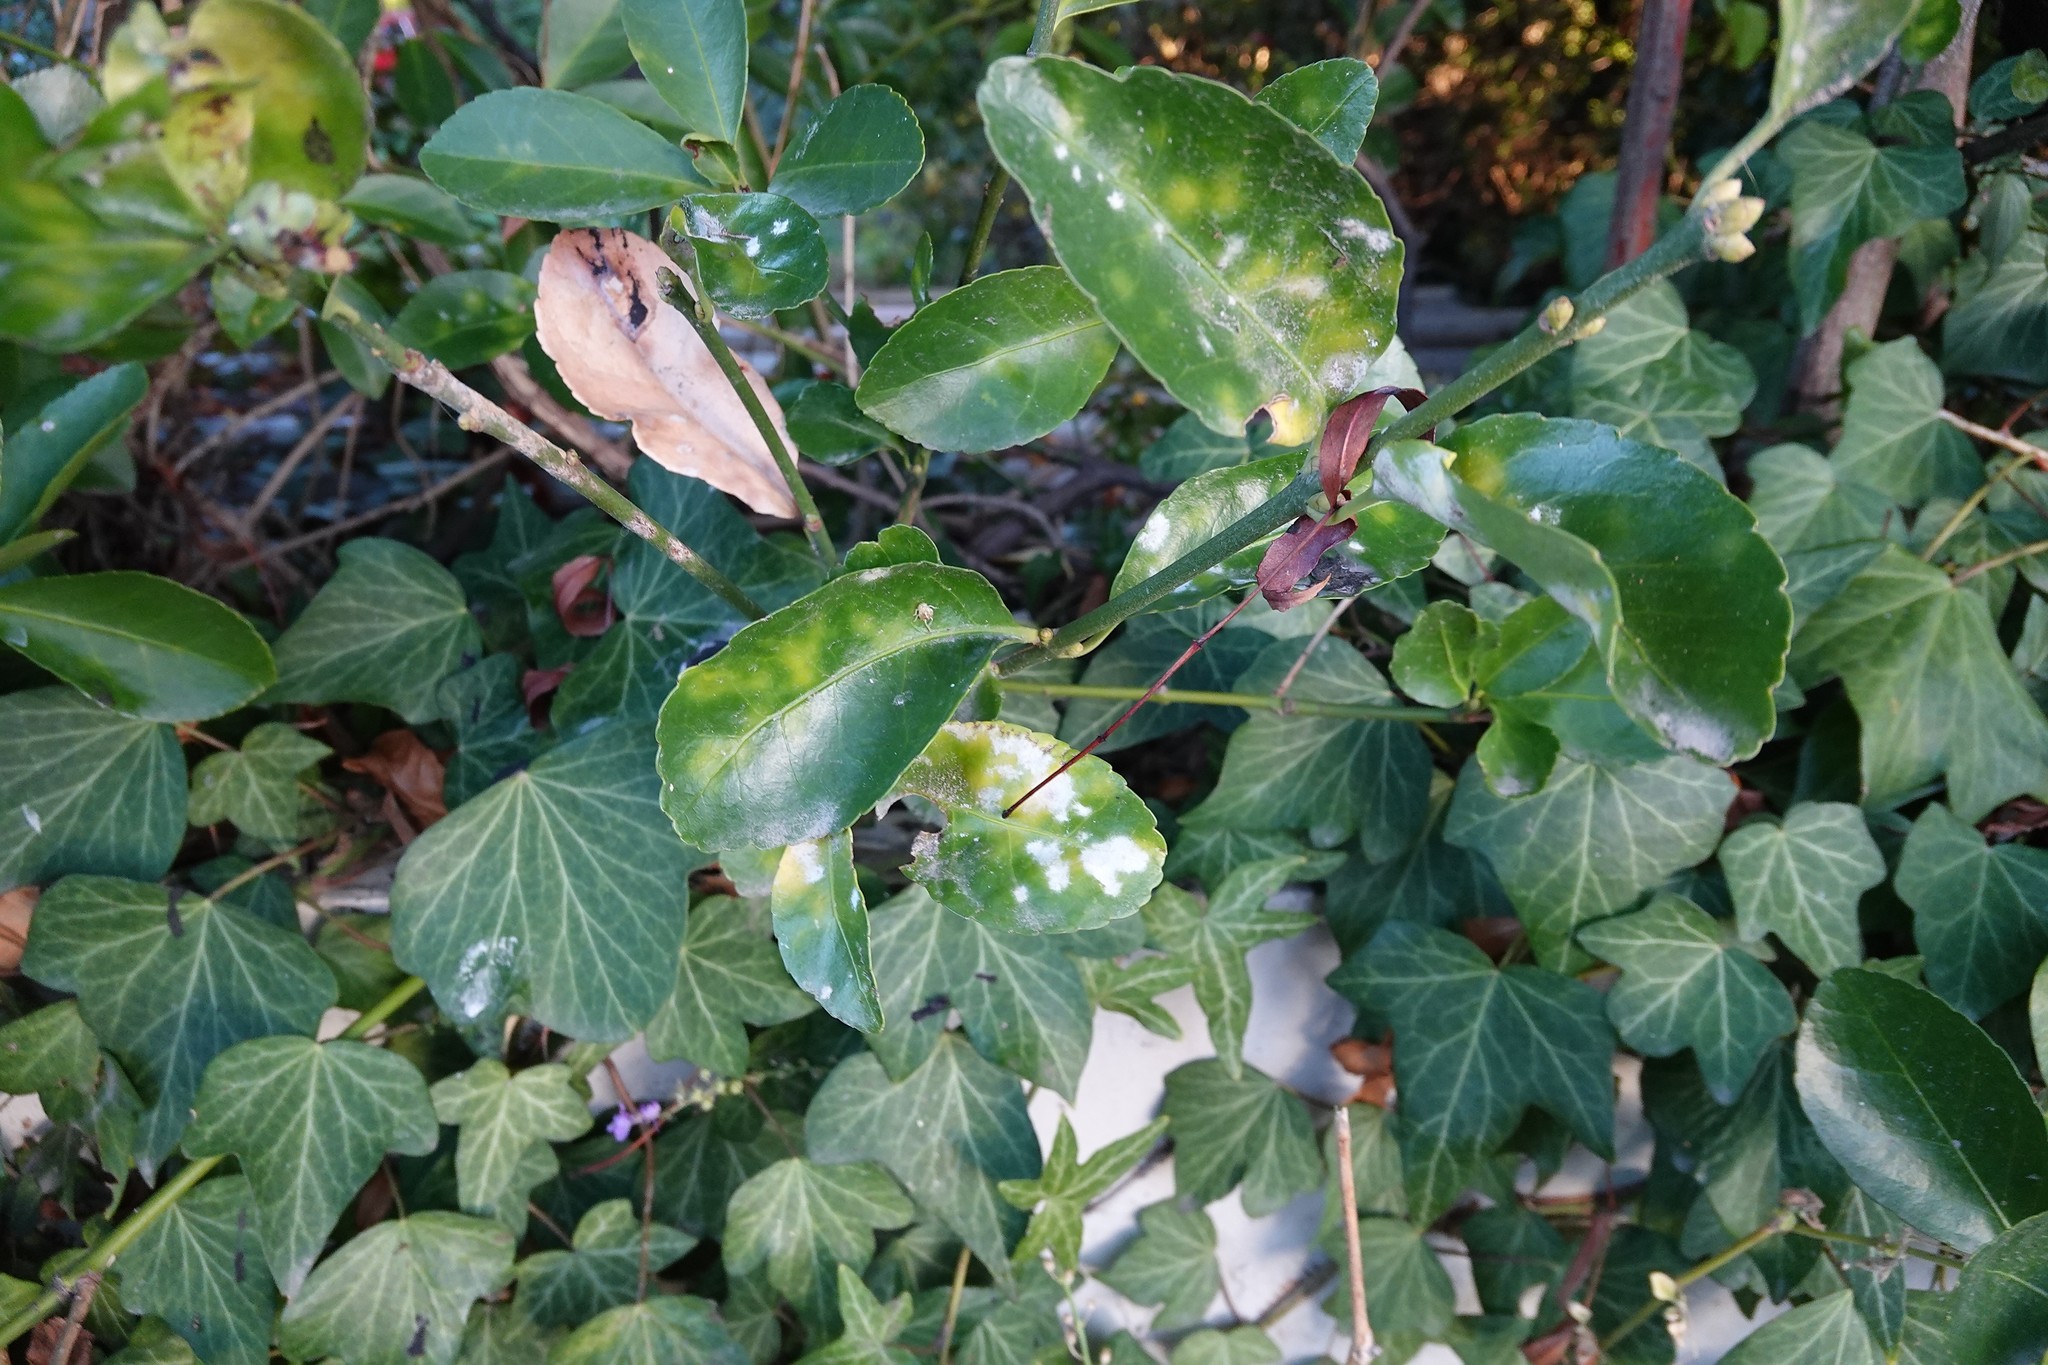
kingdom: Fungi
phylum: Ascomycota
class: Leotiomycetes
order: Helotiales
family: Erysiphaceae
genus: Erysiphe
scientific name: Erysiphe euonymicola
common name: Spindletree mildew
